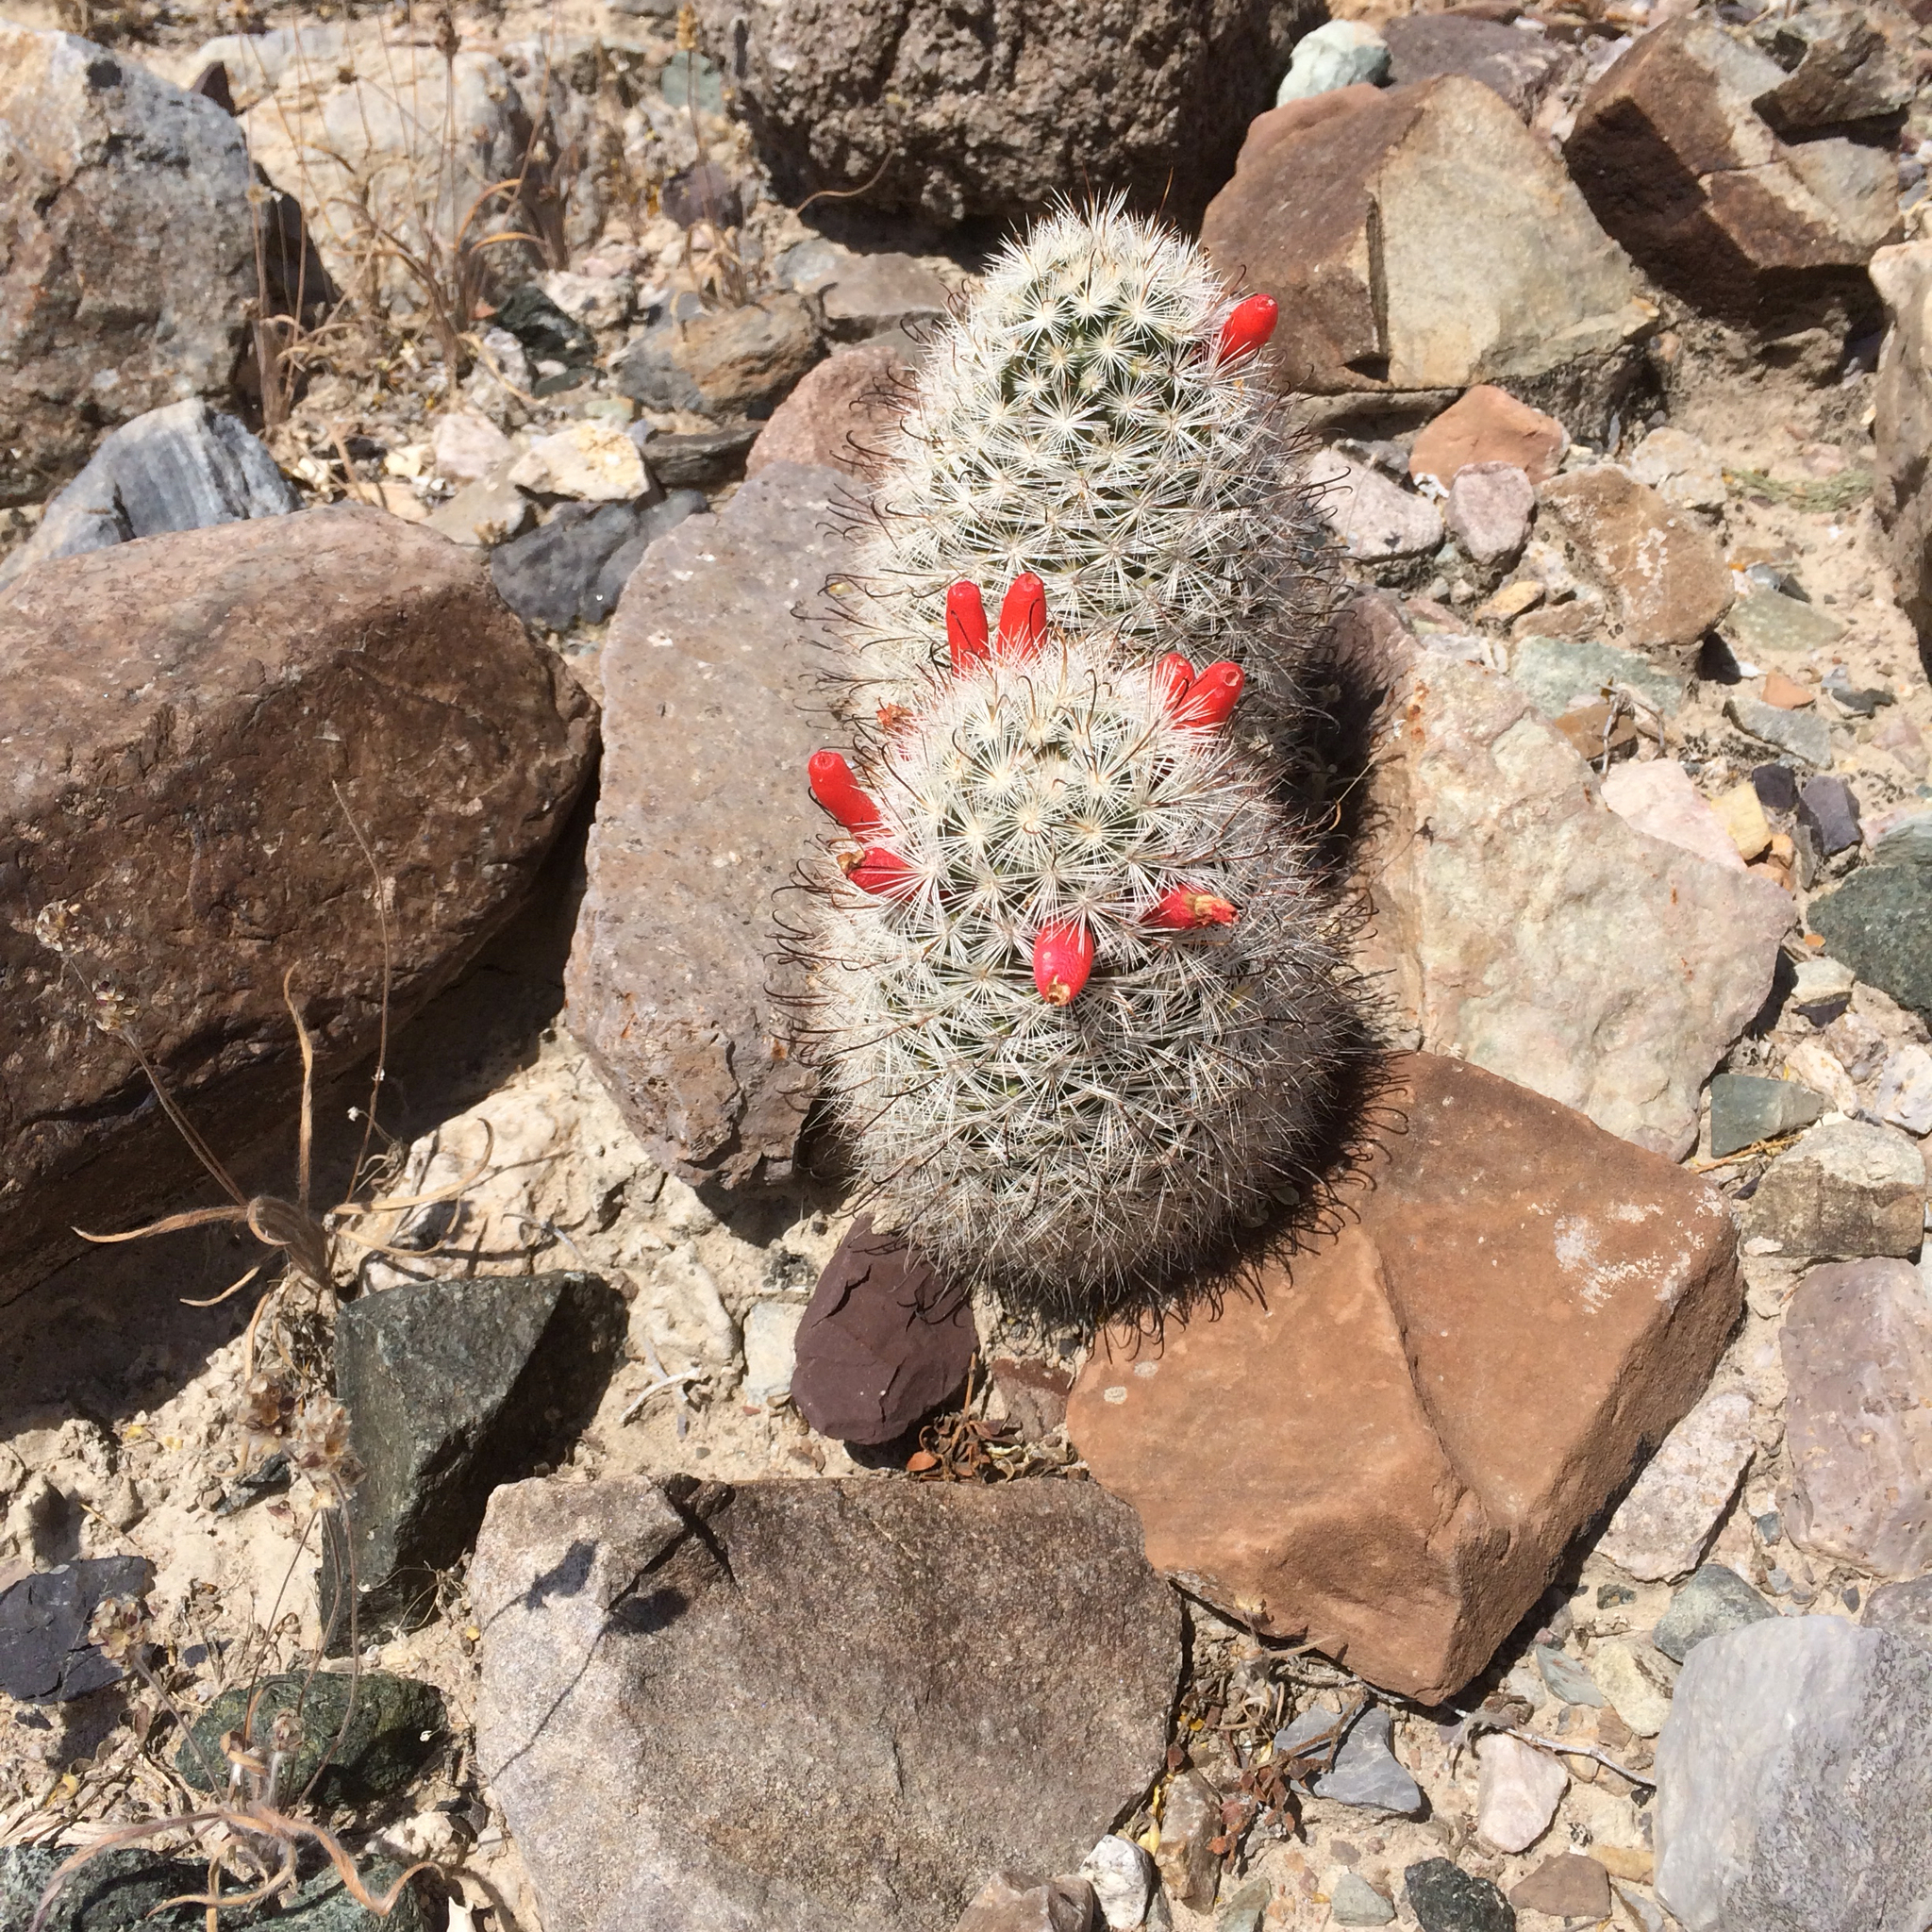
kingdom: Plantae
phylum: Tracheophyta
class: Magnoliopsida
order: Caryophyllales
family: Cactaceae
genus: Cochemiea
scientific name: Cochemiea tetrancistra
